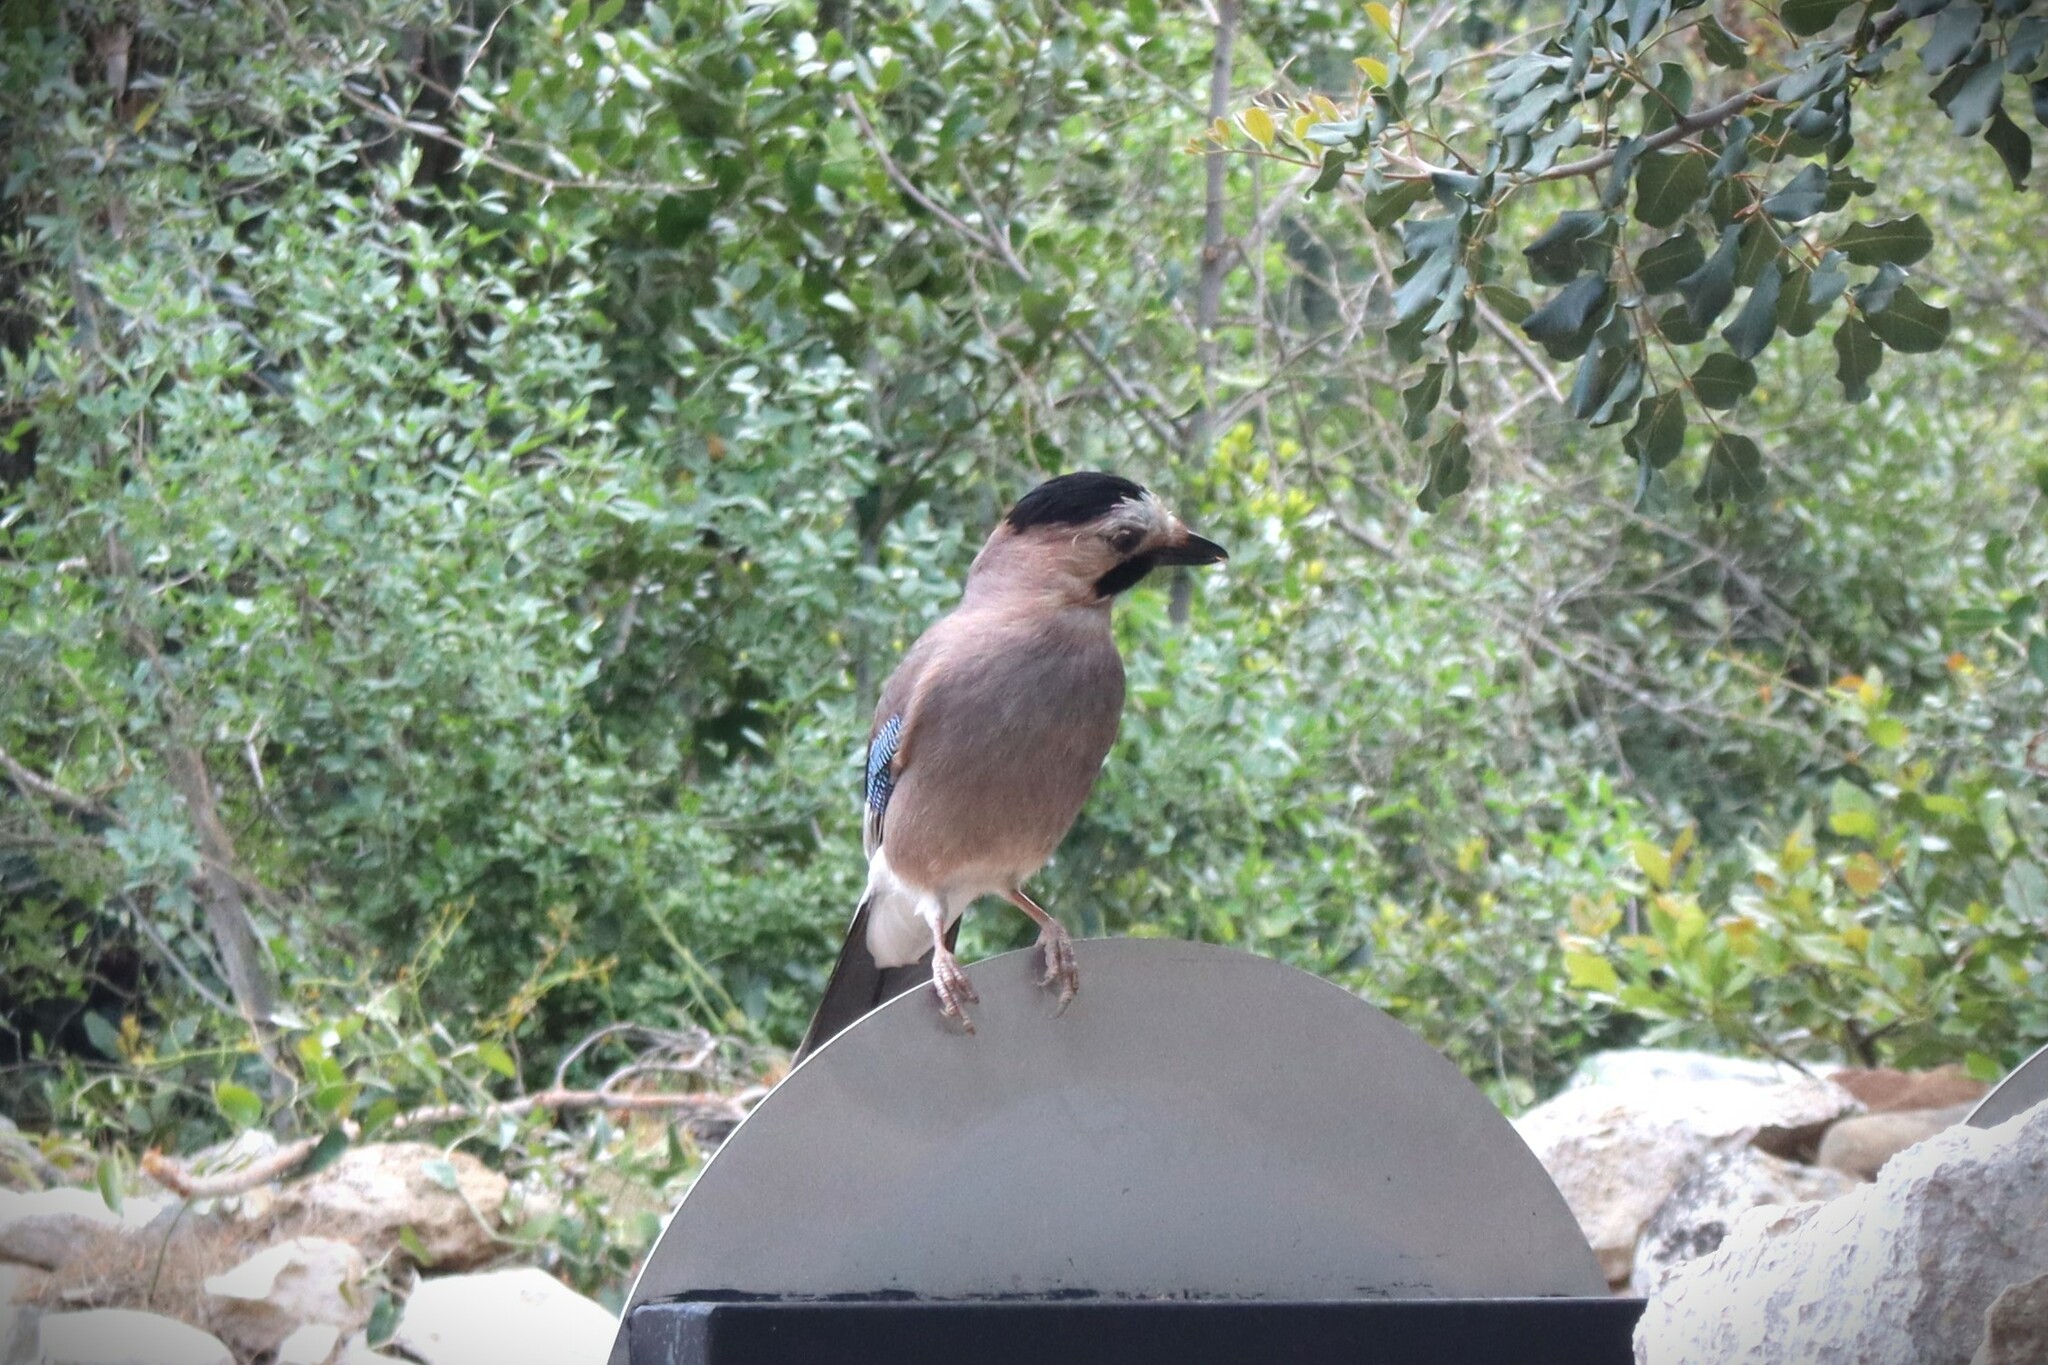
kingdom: Animalia
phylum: Chordata
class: Aves
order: Passeriformes
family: Corvidae
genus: Garrulus
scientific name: Garrulus glandarius
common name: Eurasian jay
